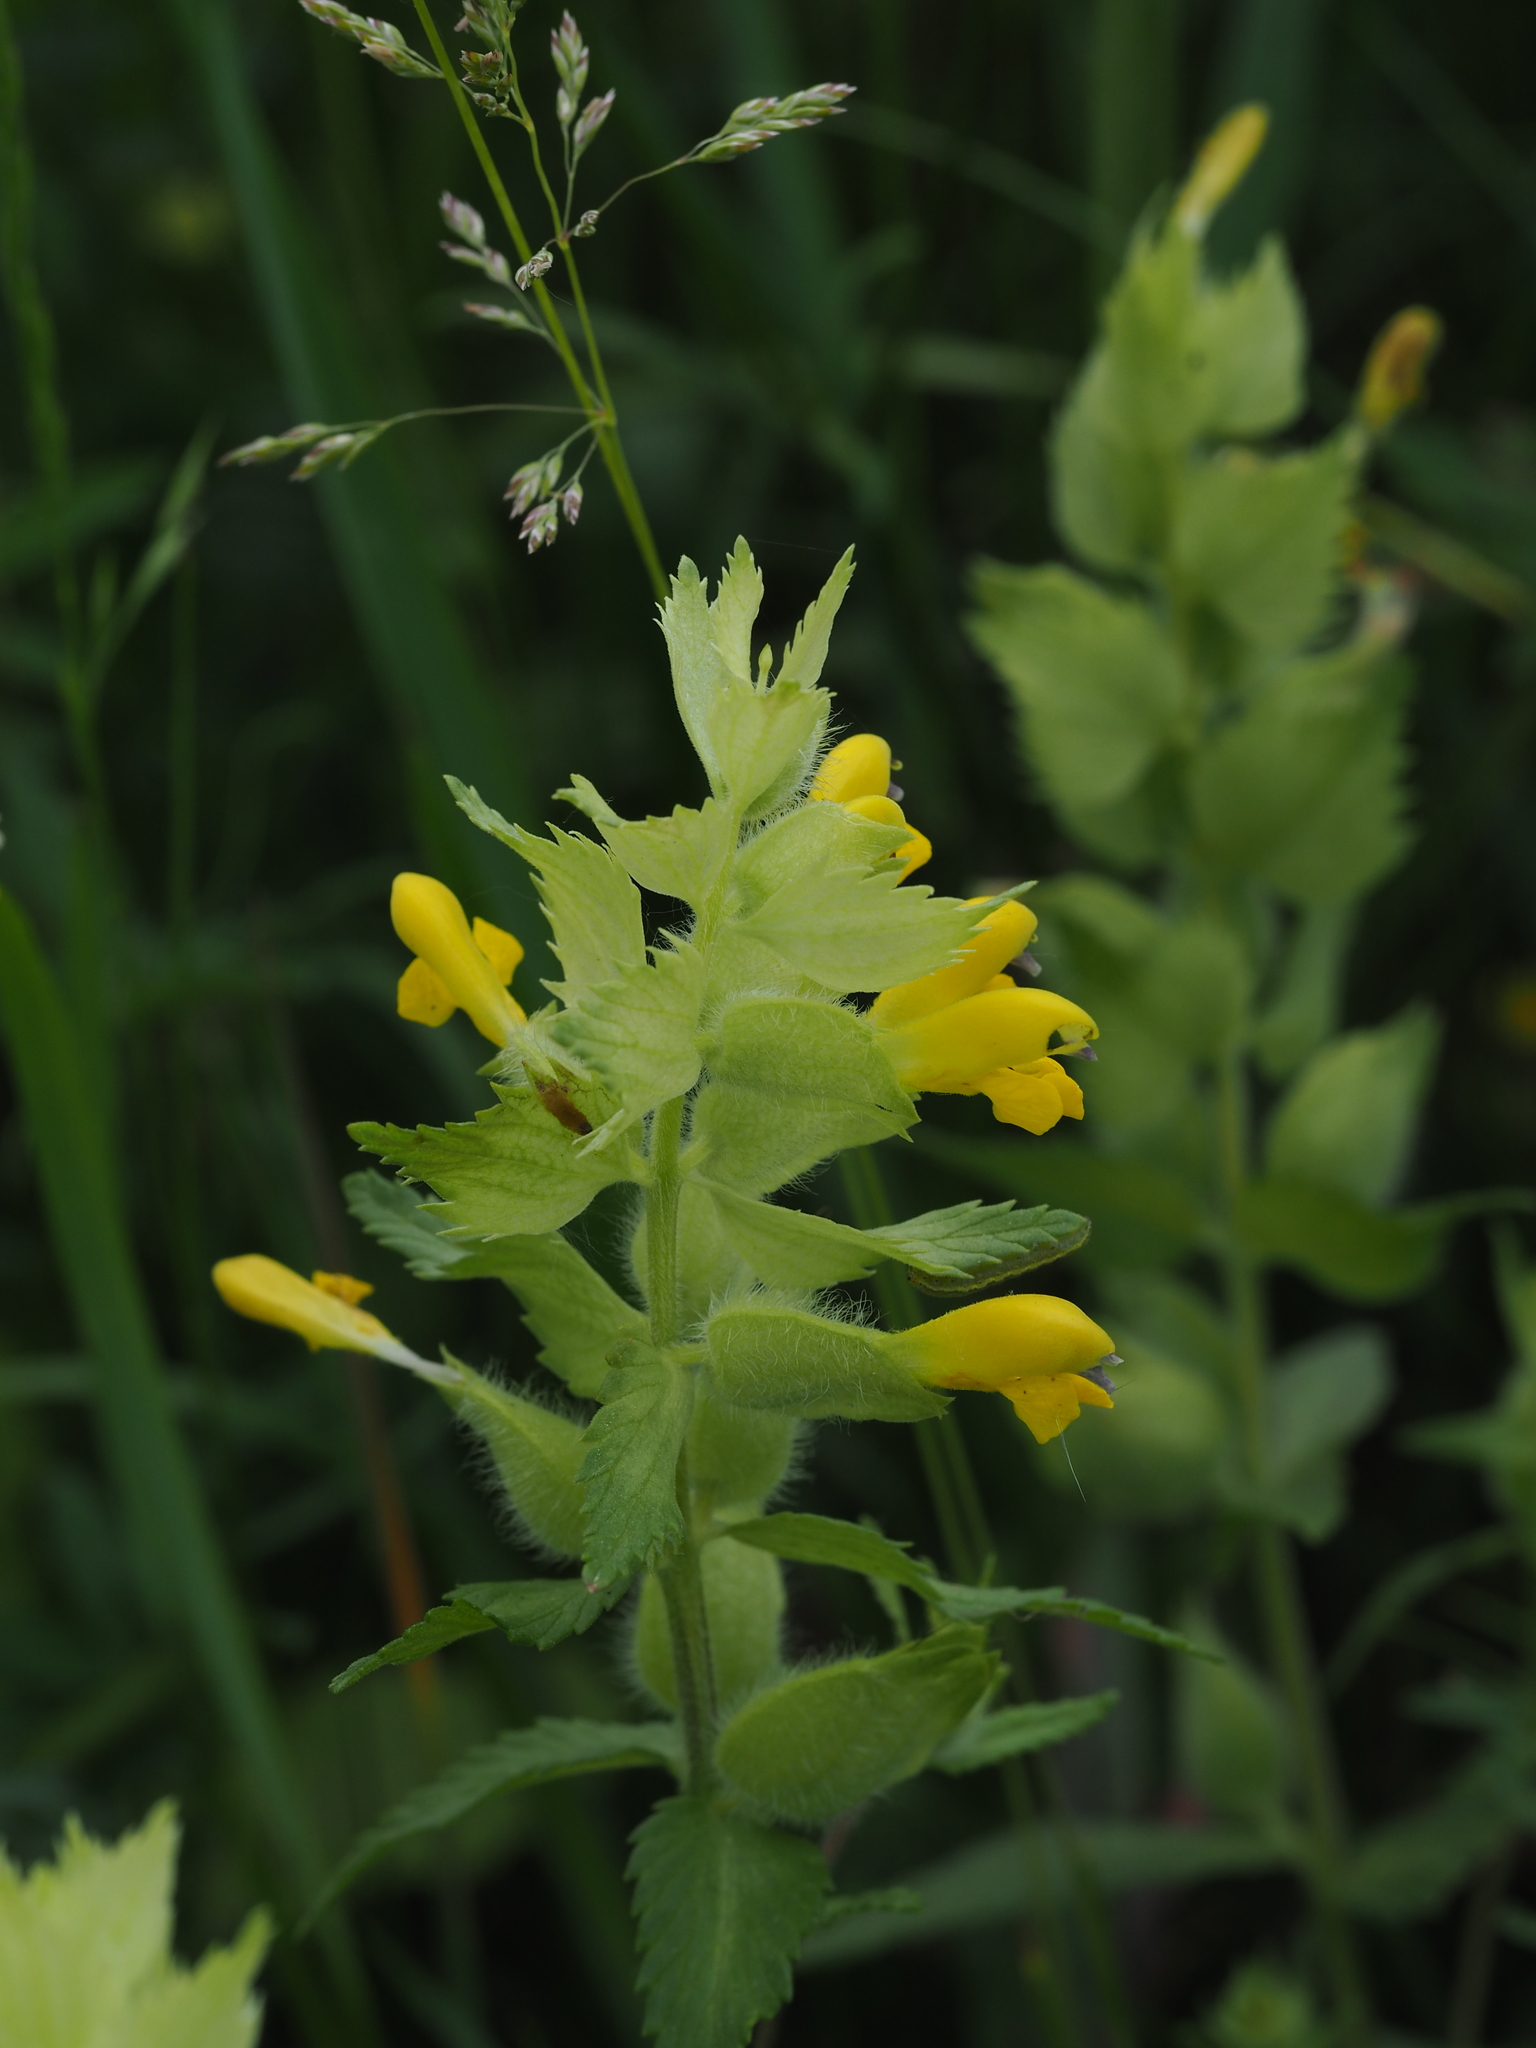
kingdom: Plantae
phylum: Tracheophyta
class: Magnoliopsida
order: Lamiales
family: Orobanchaceae
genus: Rhinanthus
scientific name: Rhinanthus alectorolophus
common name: Greater yellow-rattle
